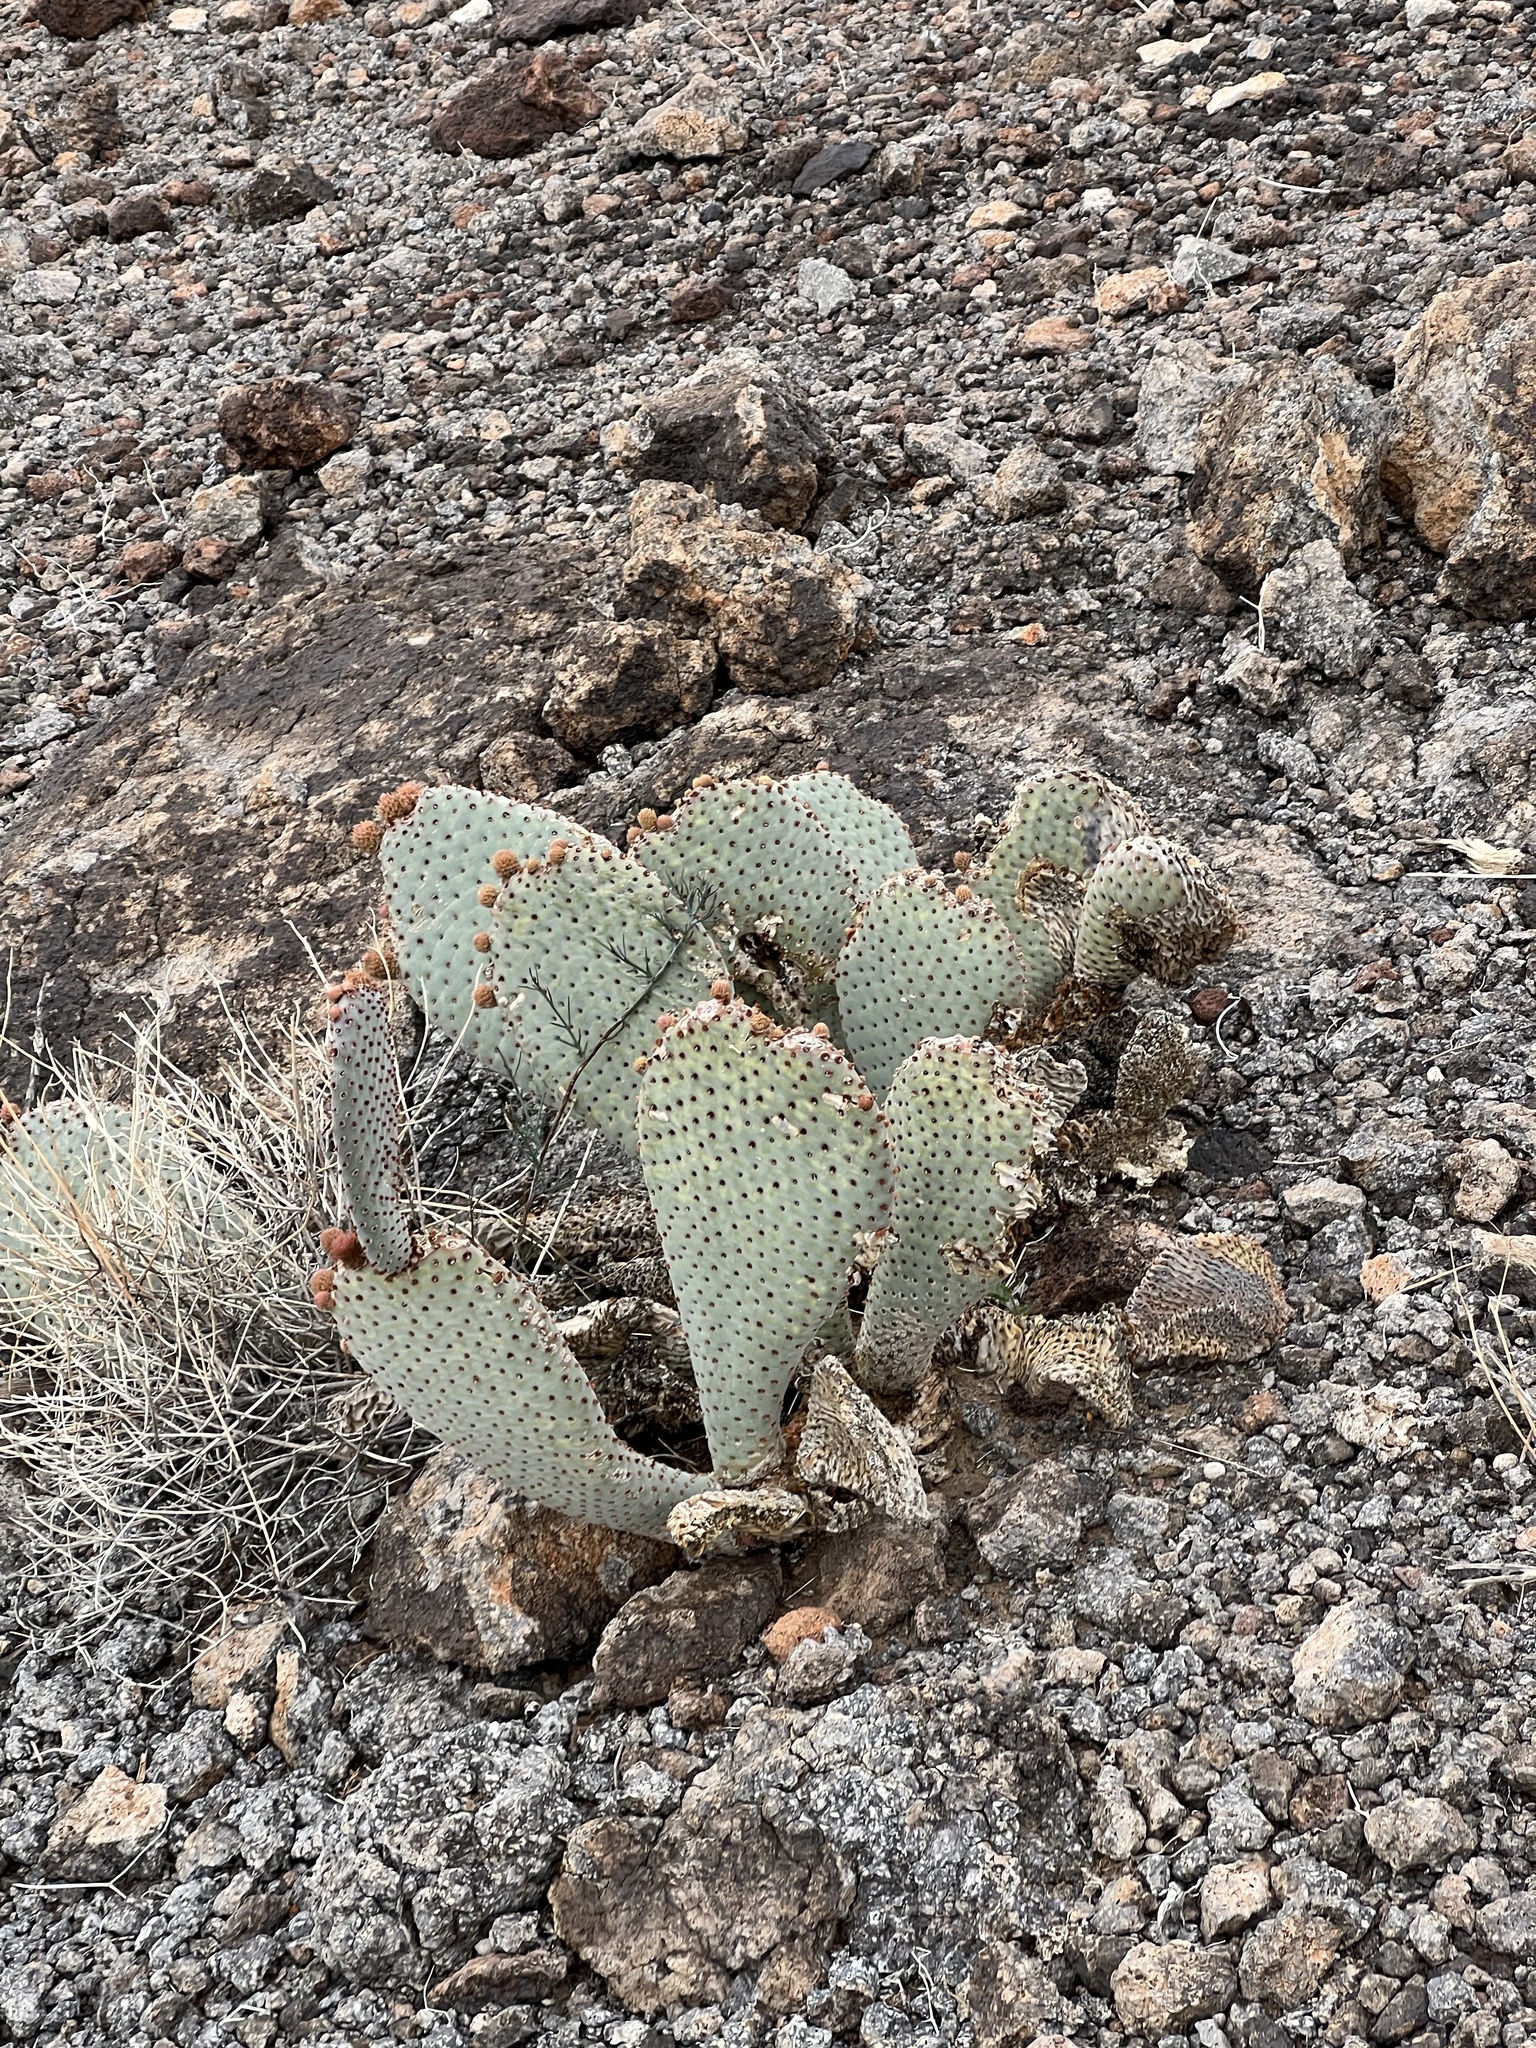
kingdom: Plantae
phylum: Tracheophyta
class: Magnoliopsida
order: Caryophyllales
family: Cactaceae
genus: Opuntia
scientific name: Opuntia basilaris
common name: Beavertail prickly-pear
